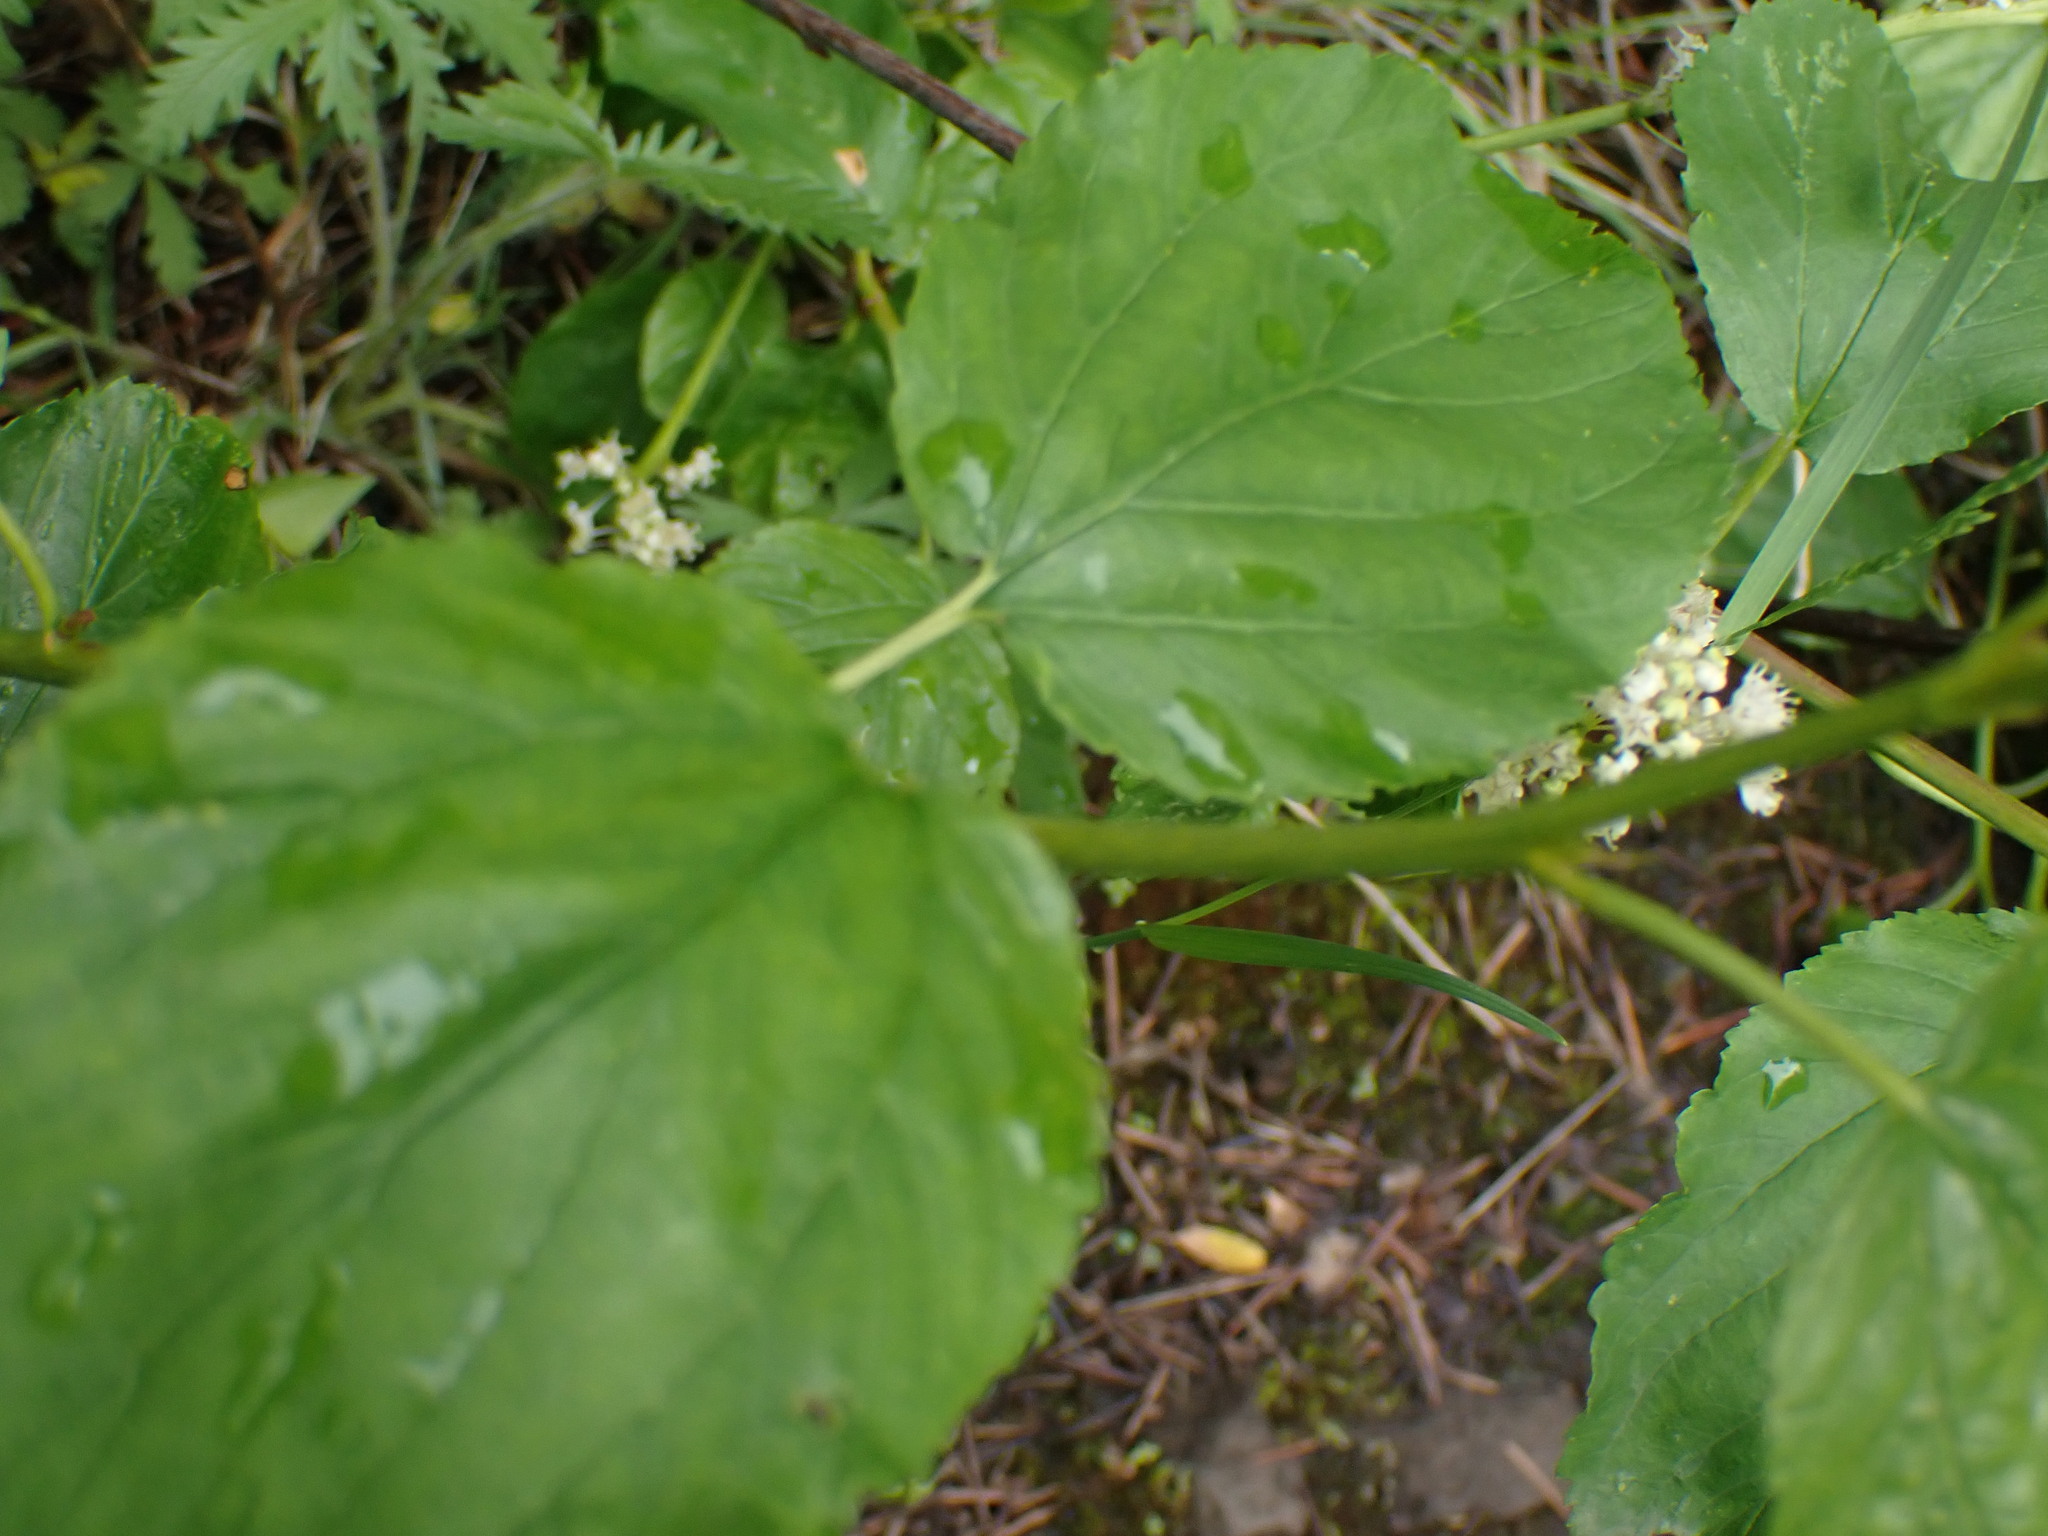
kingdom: Plantae
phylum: Tracheophyta
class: Magnoliopsida
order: Rosales
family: Rhamnaceae
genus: Ceanothus
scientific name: Ceanothus sanguineus
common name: Teatree
